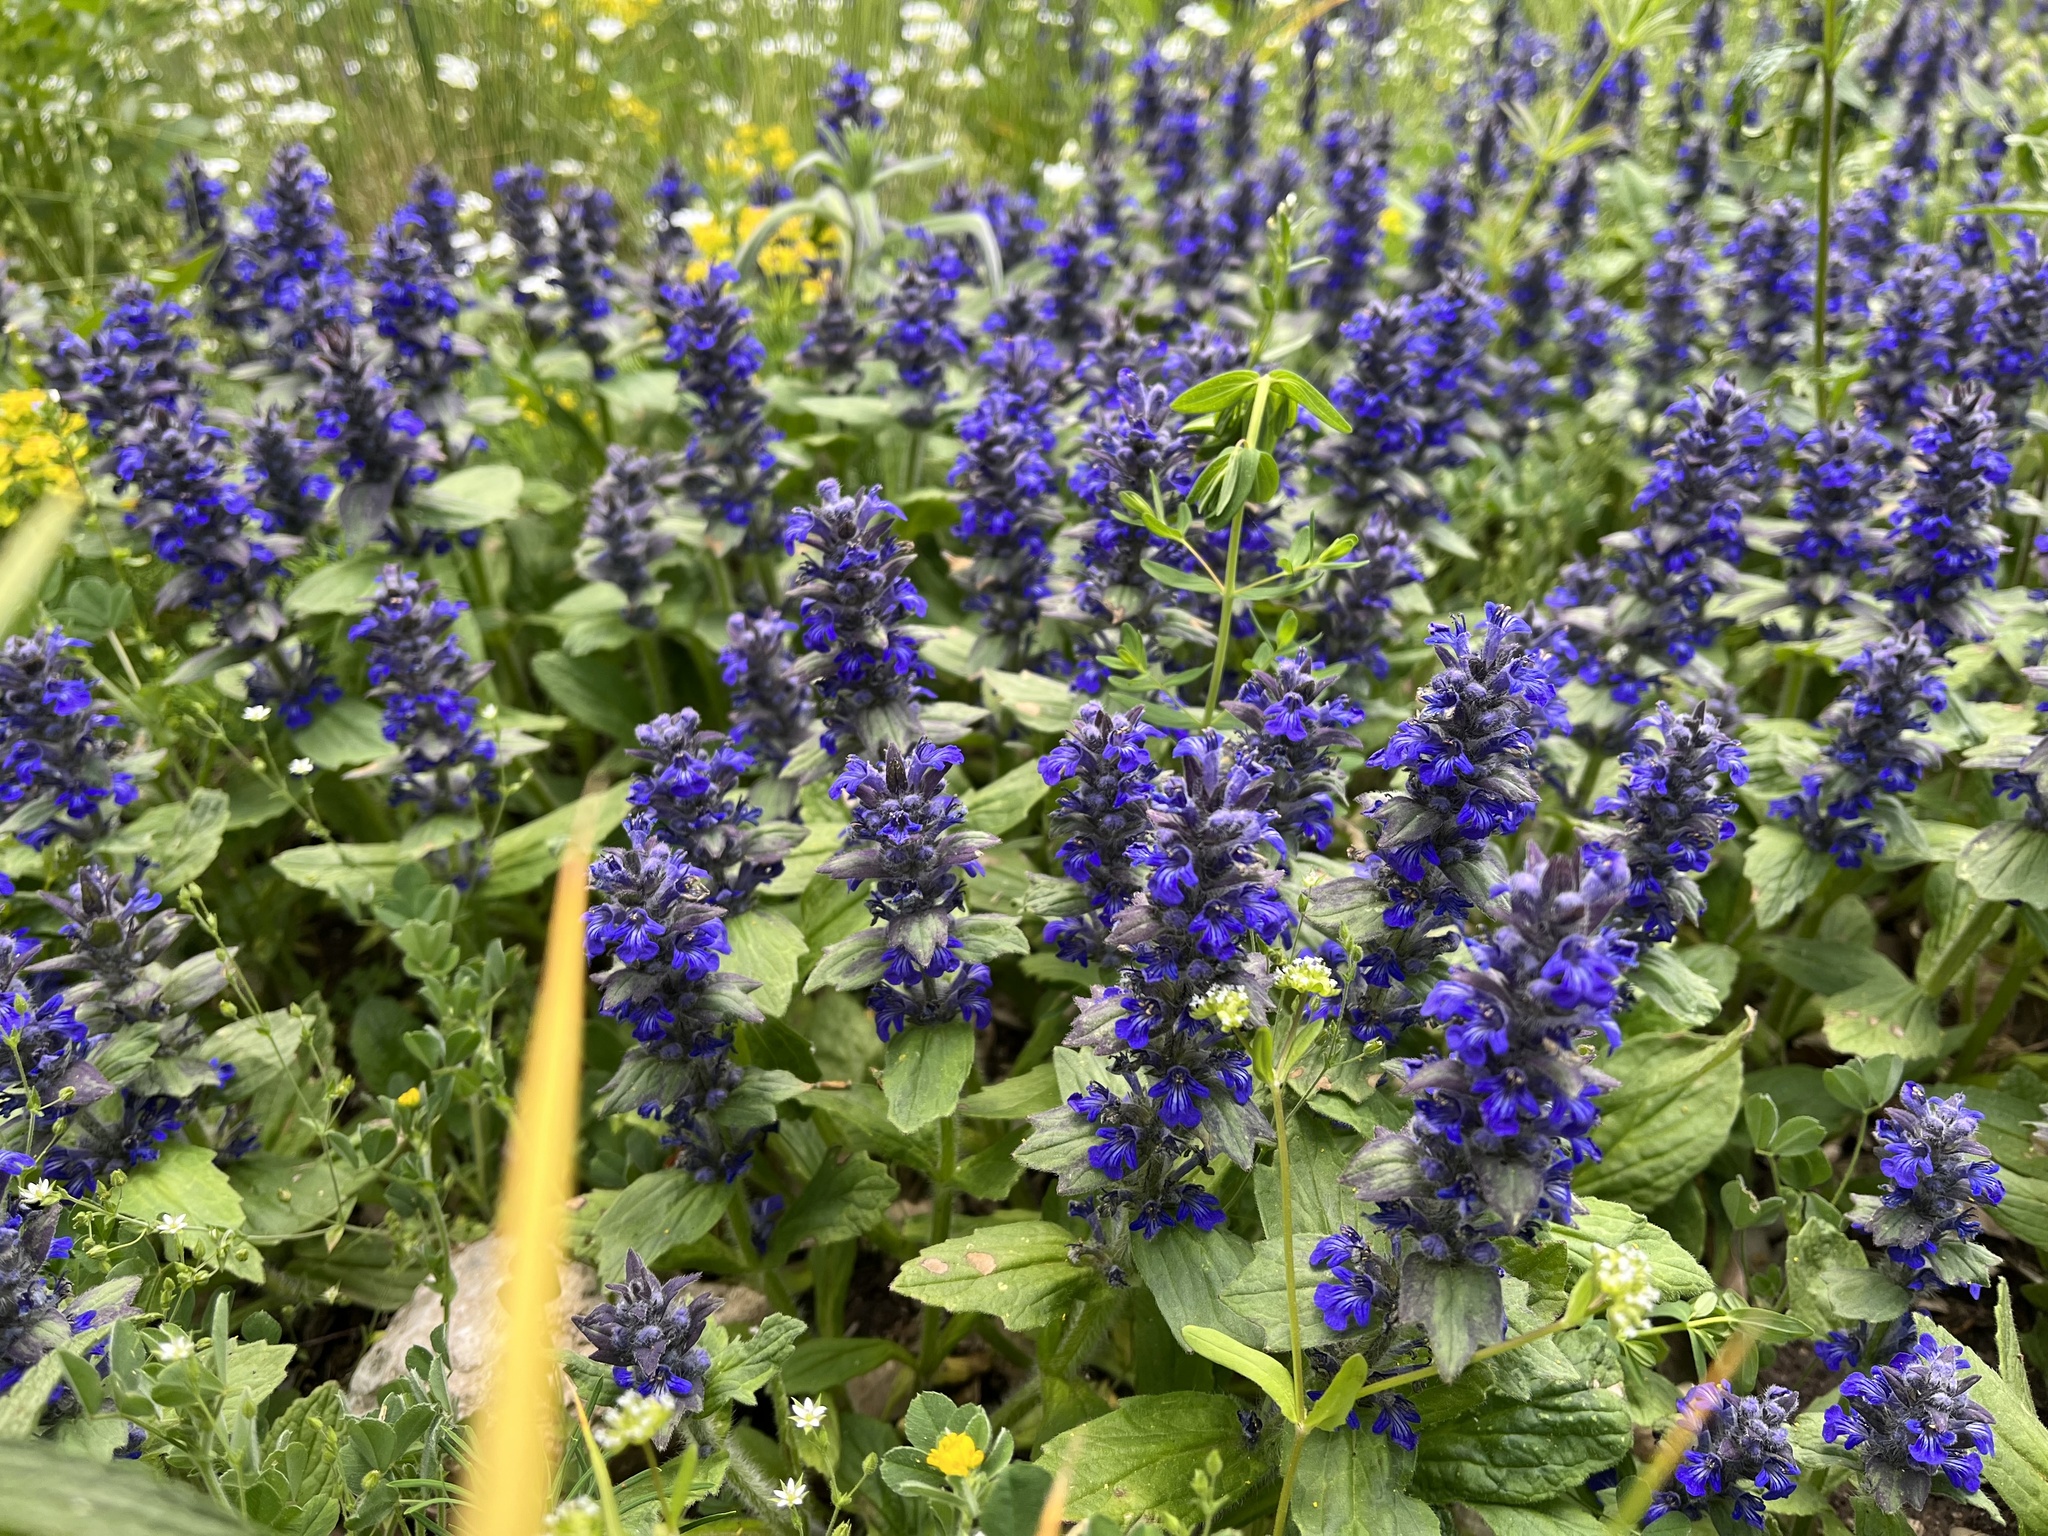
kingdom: Plantae
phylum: Tracheophyta
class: Magnoliopsida
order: Lamiales
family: Lamiaceae
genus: Ajuga
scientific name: Ajuga genevensis
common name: Blue bugle
